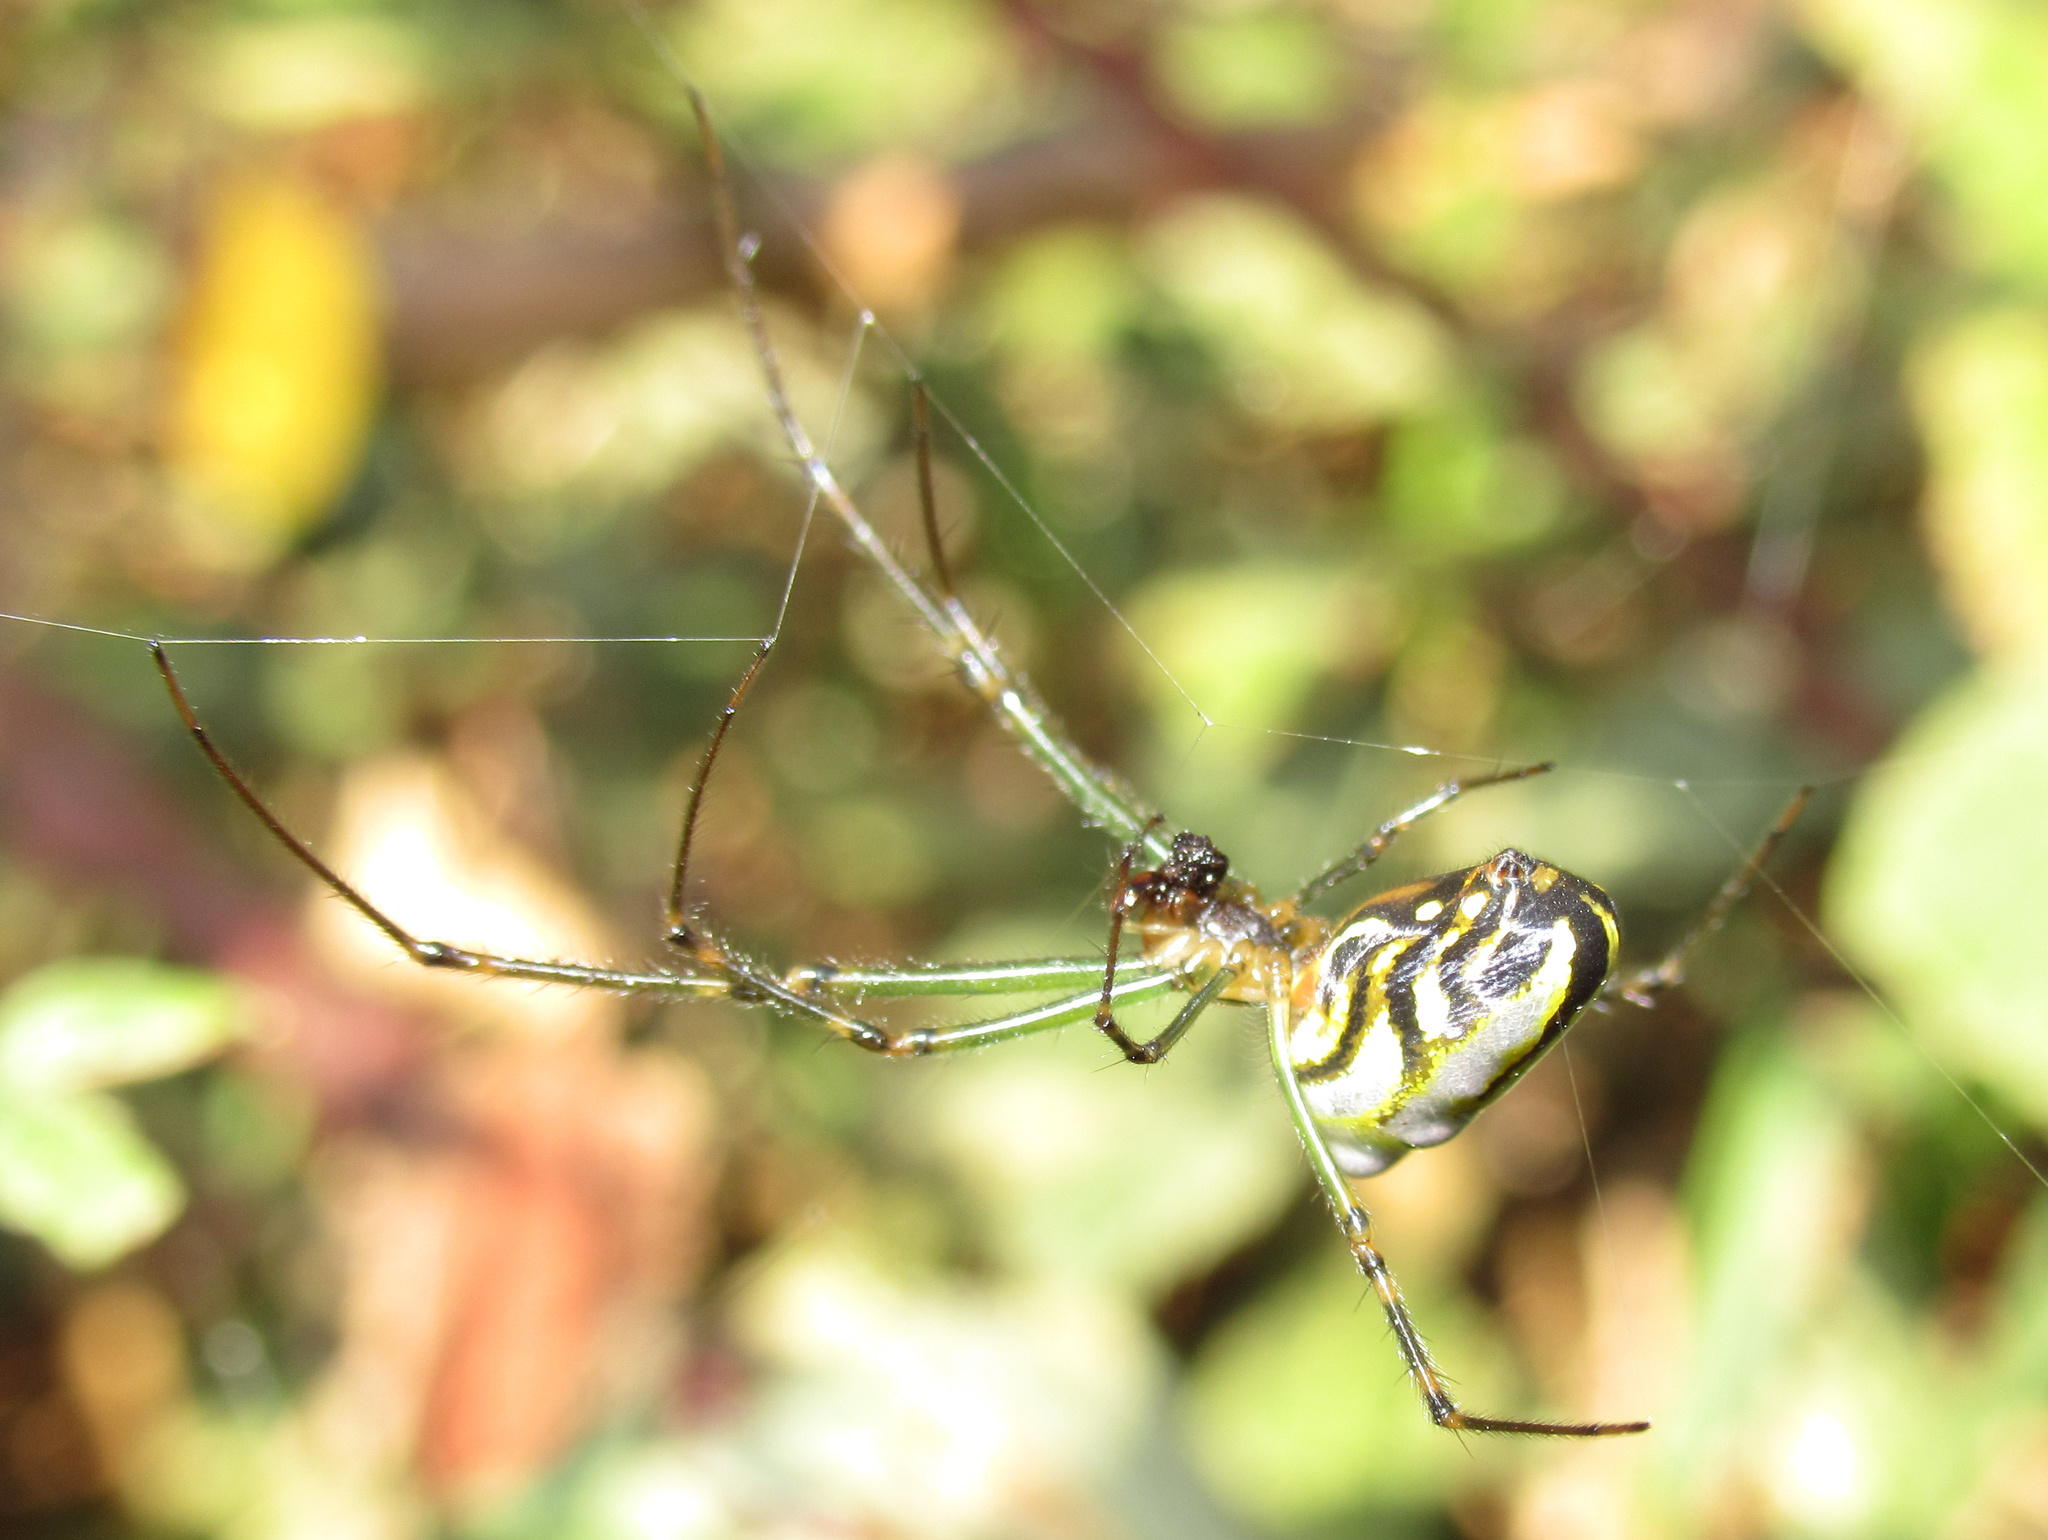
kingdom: Animalia
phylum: Arthropoda
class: Arachnida
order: Araneae
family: Tetragnathidae
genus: Leucauge
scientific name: Leucauge dromedaria
